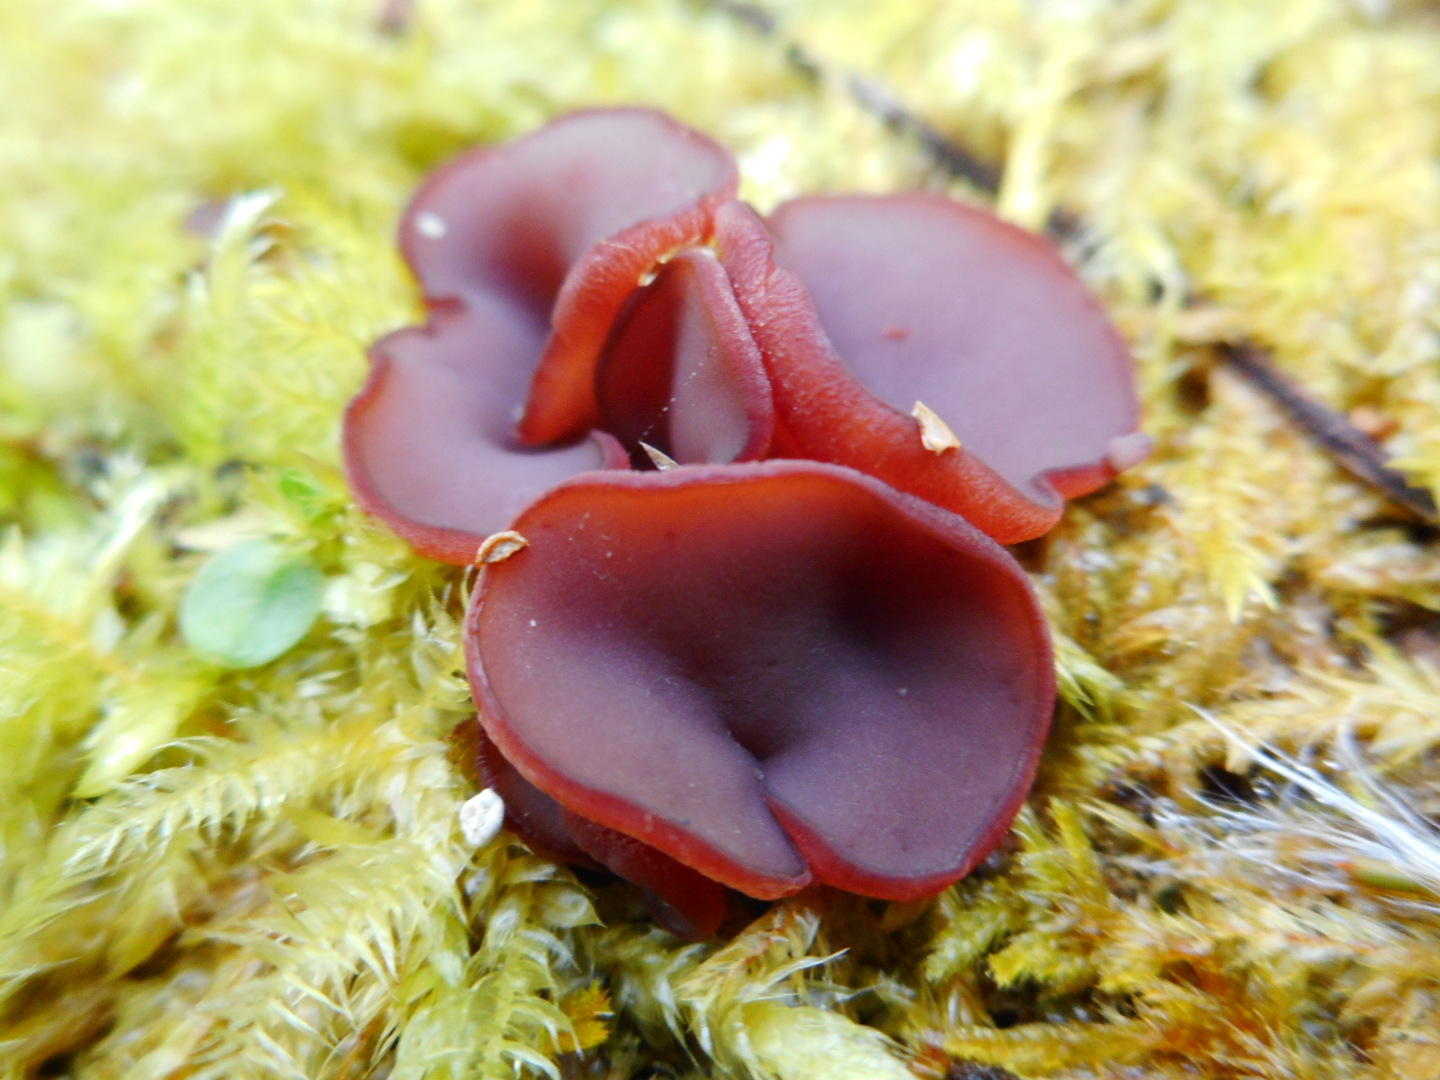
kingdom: Fungi
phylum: Ascomycota
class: Leotiomycetes
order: Helotiales
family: Gelatinodiscaceae
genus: Ascocoryne
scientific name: Ascocoryne cylichnium
